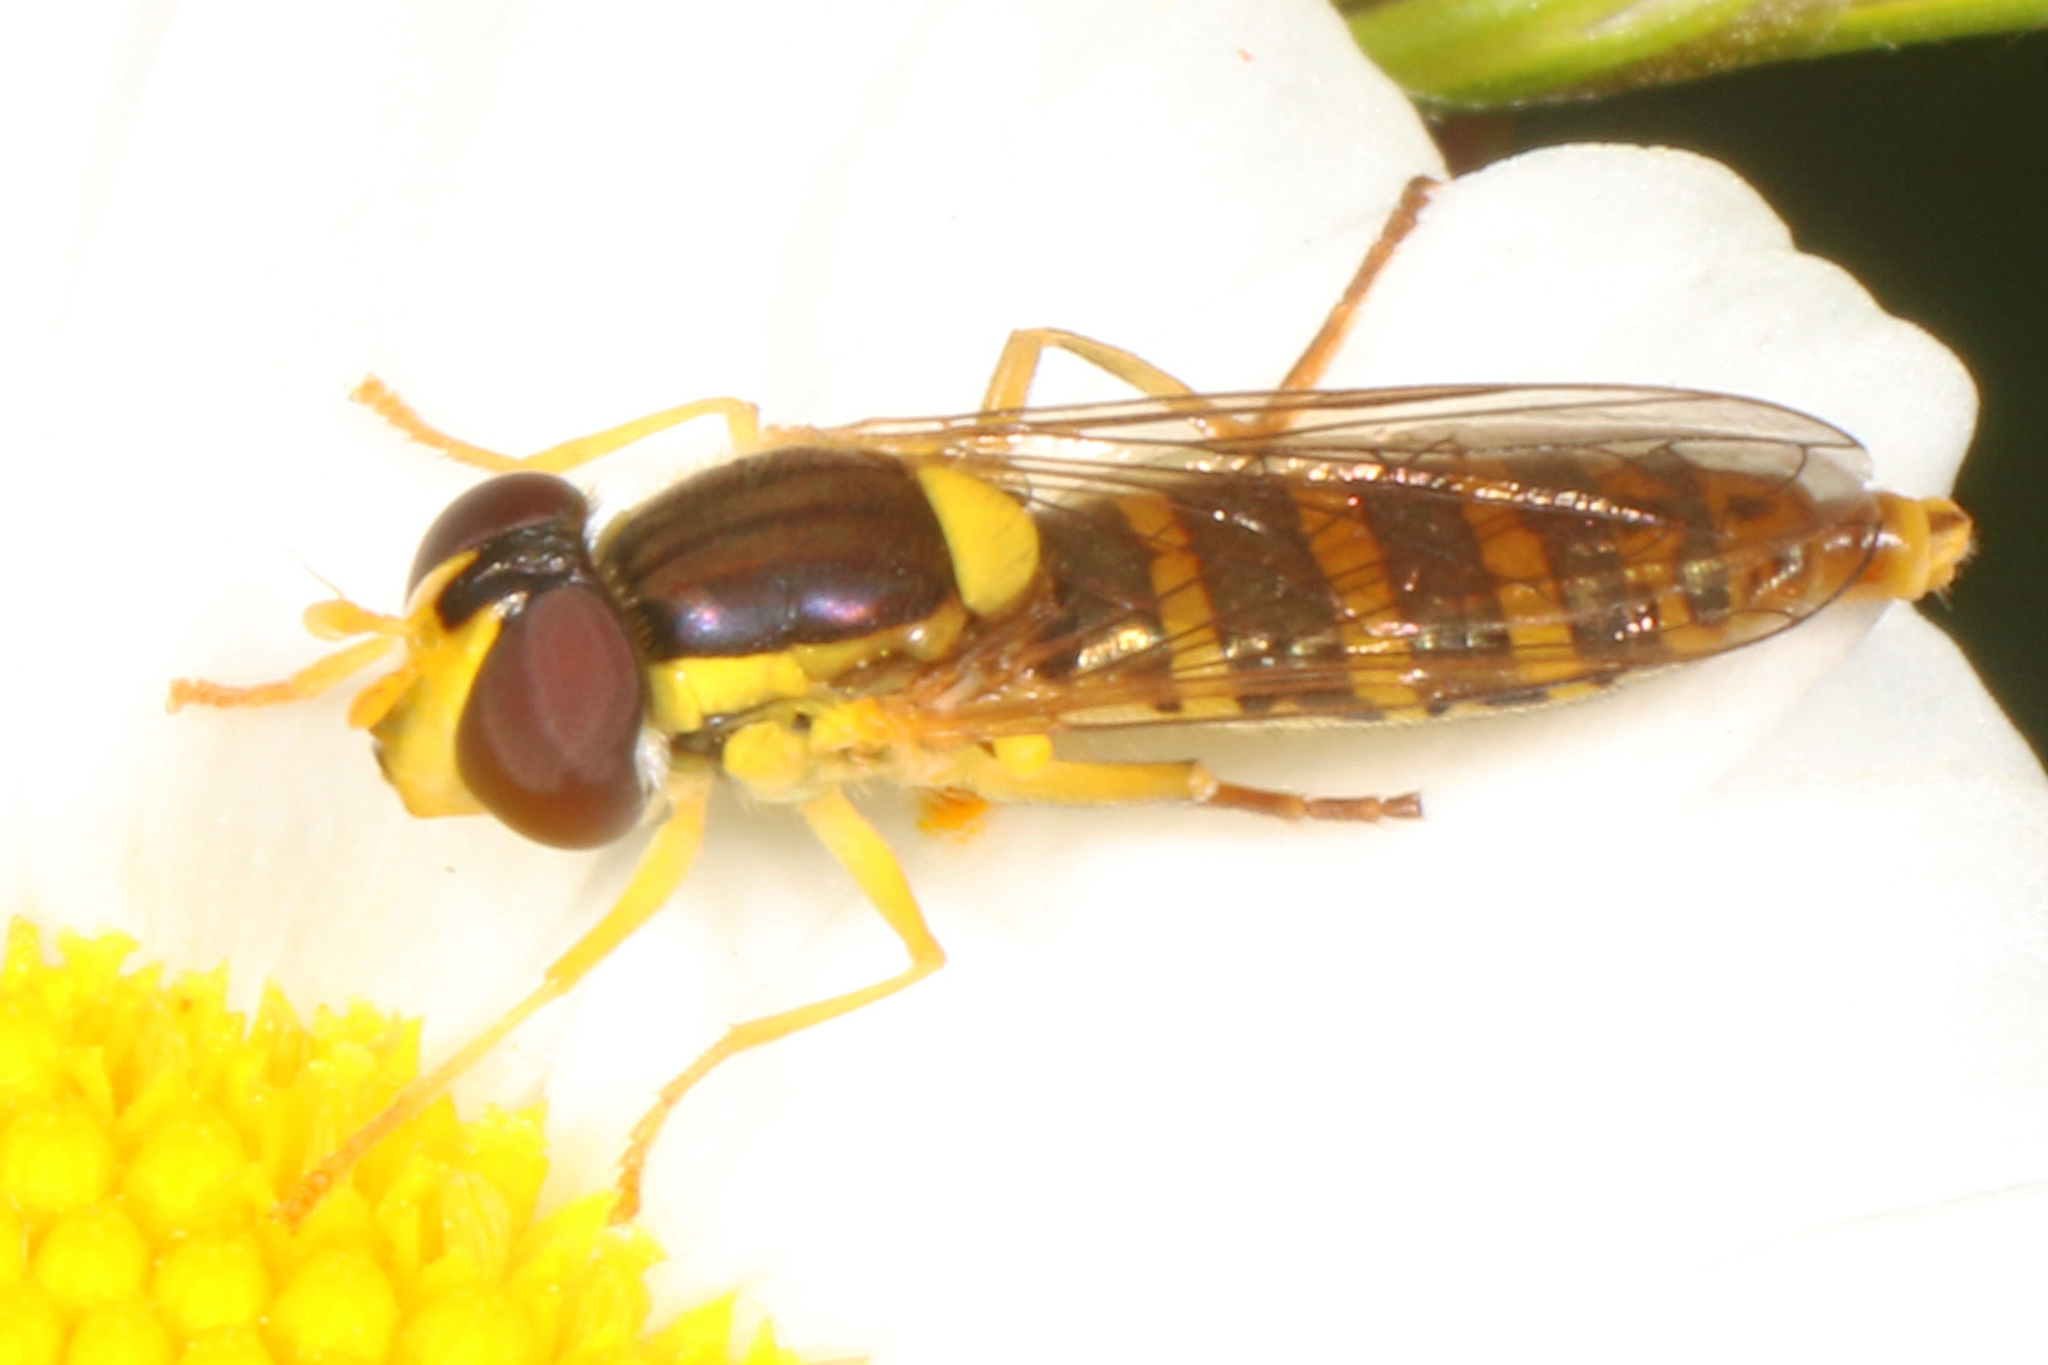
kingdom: Animalia
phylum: Arthropoda
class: Insecta
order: Diptera
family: Syrphidae
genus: Sphaerophoria
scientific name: Sphaerophoria
